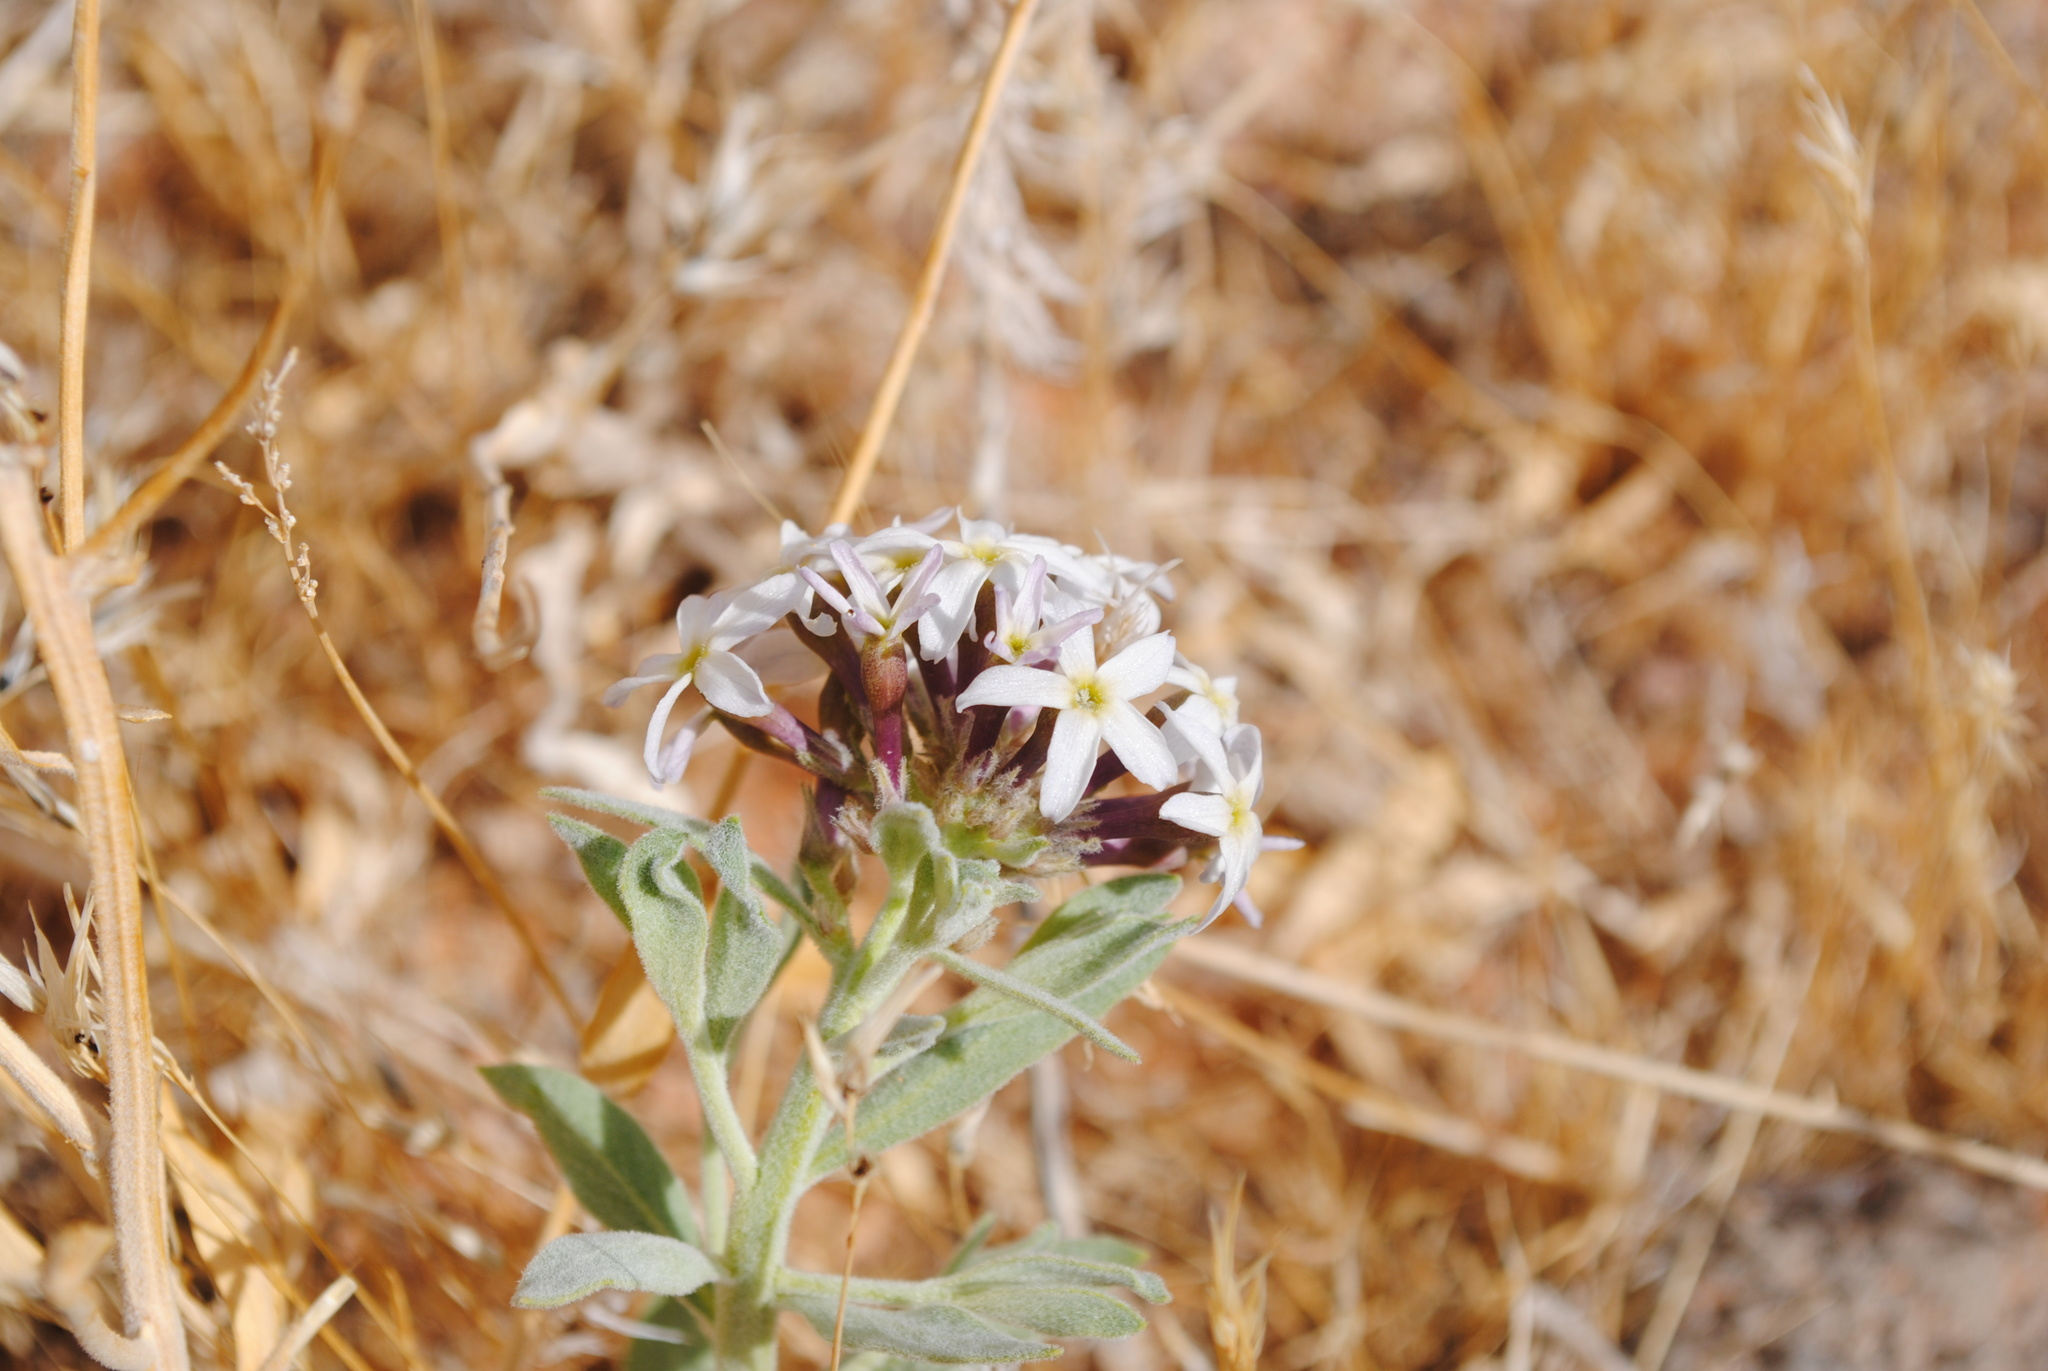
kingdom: Plantae
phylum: Tracheophyta
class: Magnoliopsida
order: Gentianales
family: Apocynaceae
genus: Amsonia
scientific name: Amsonia tomentosa
